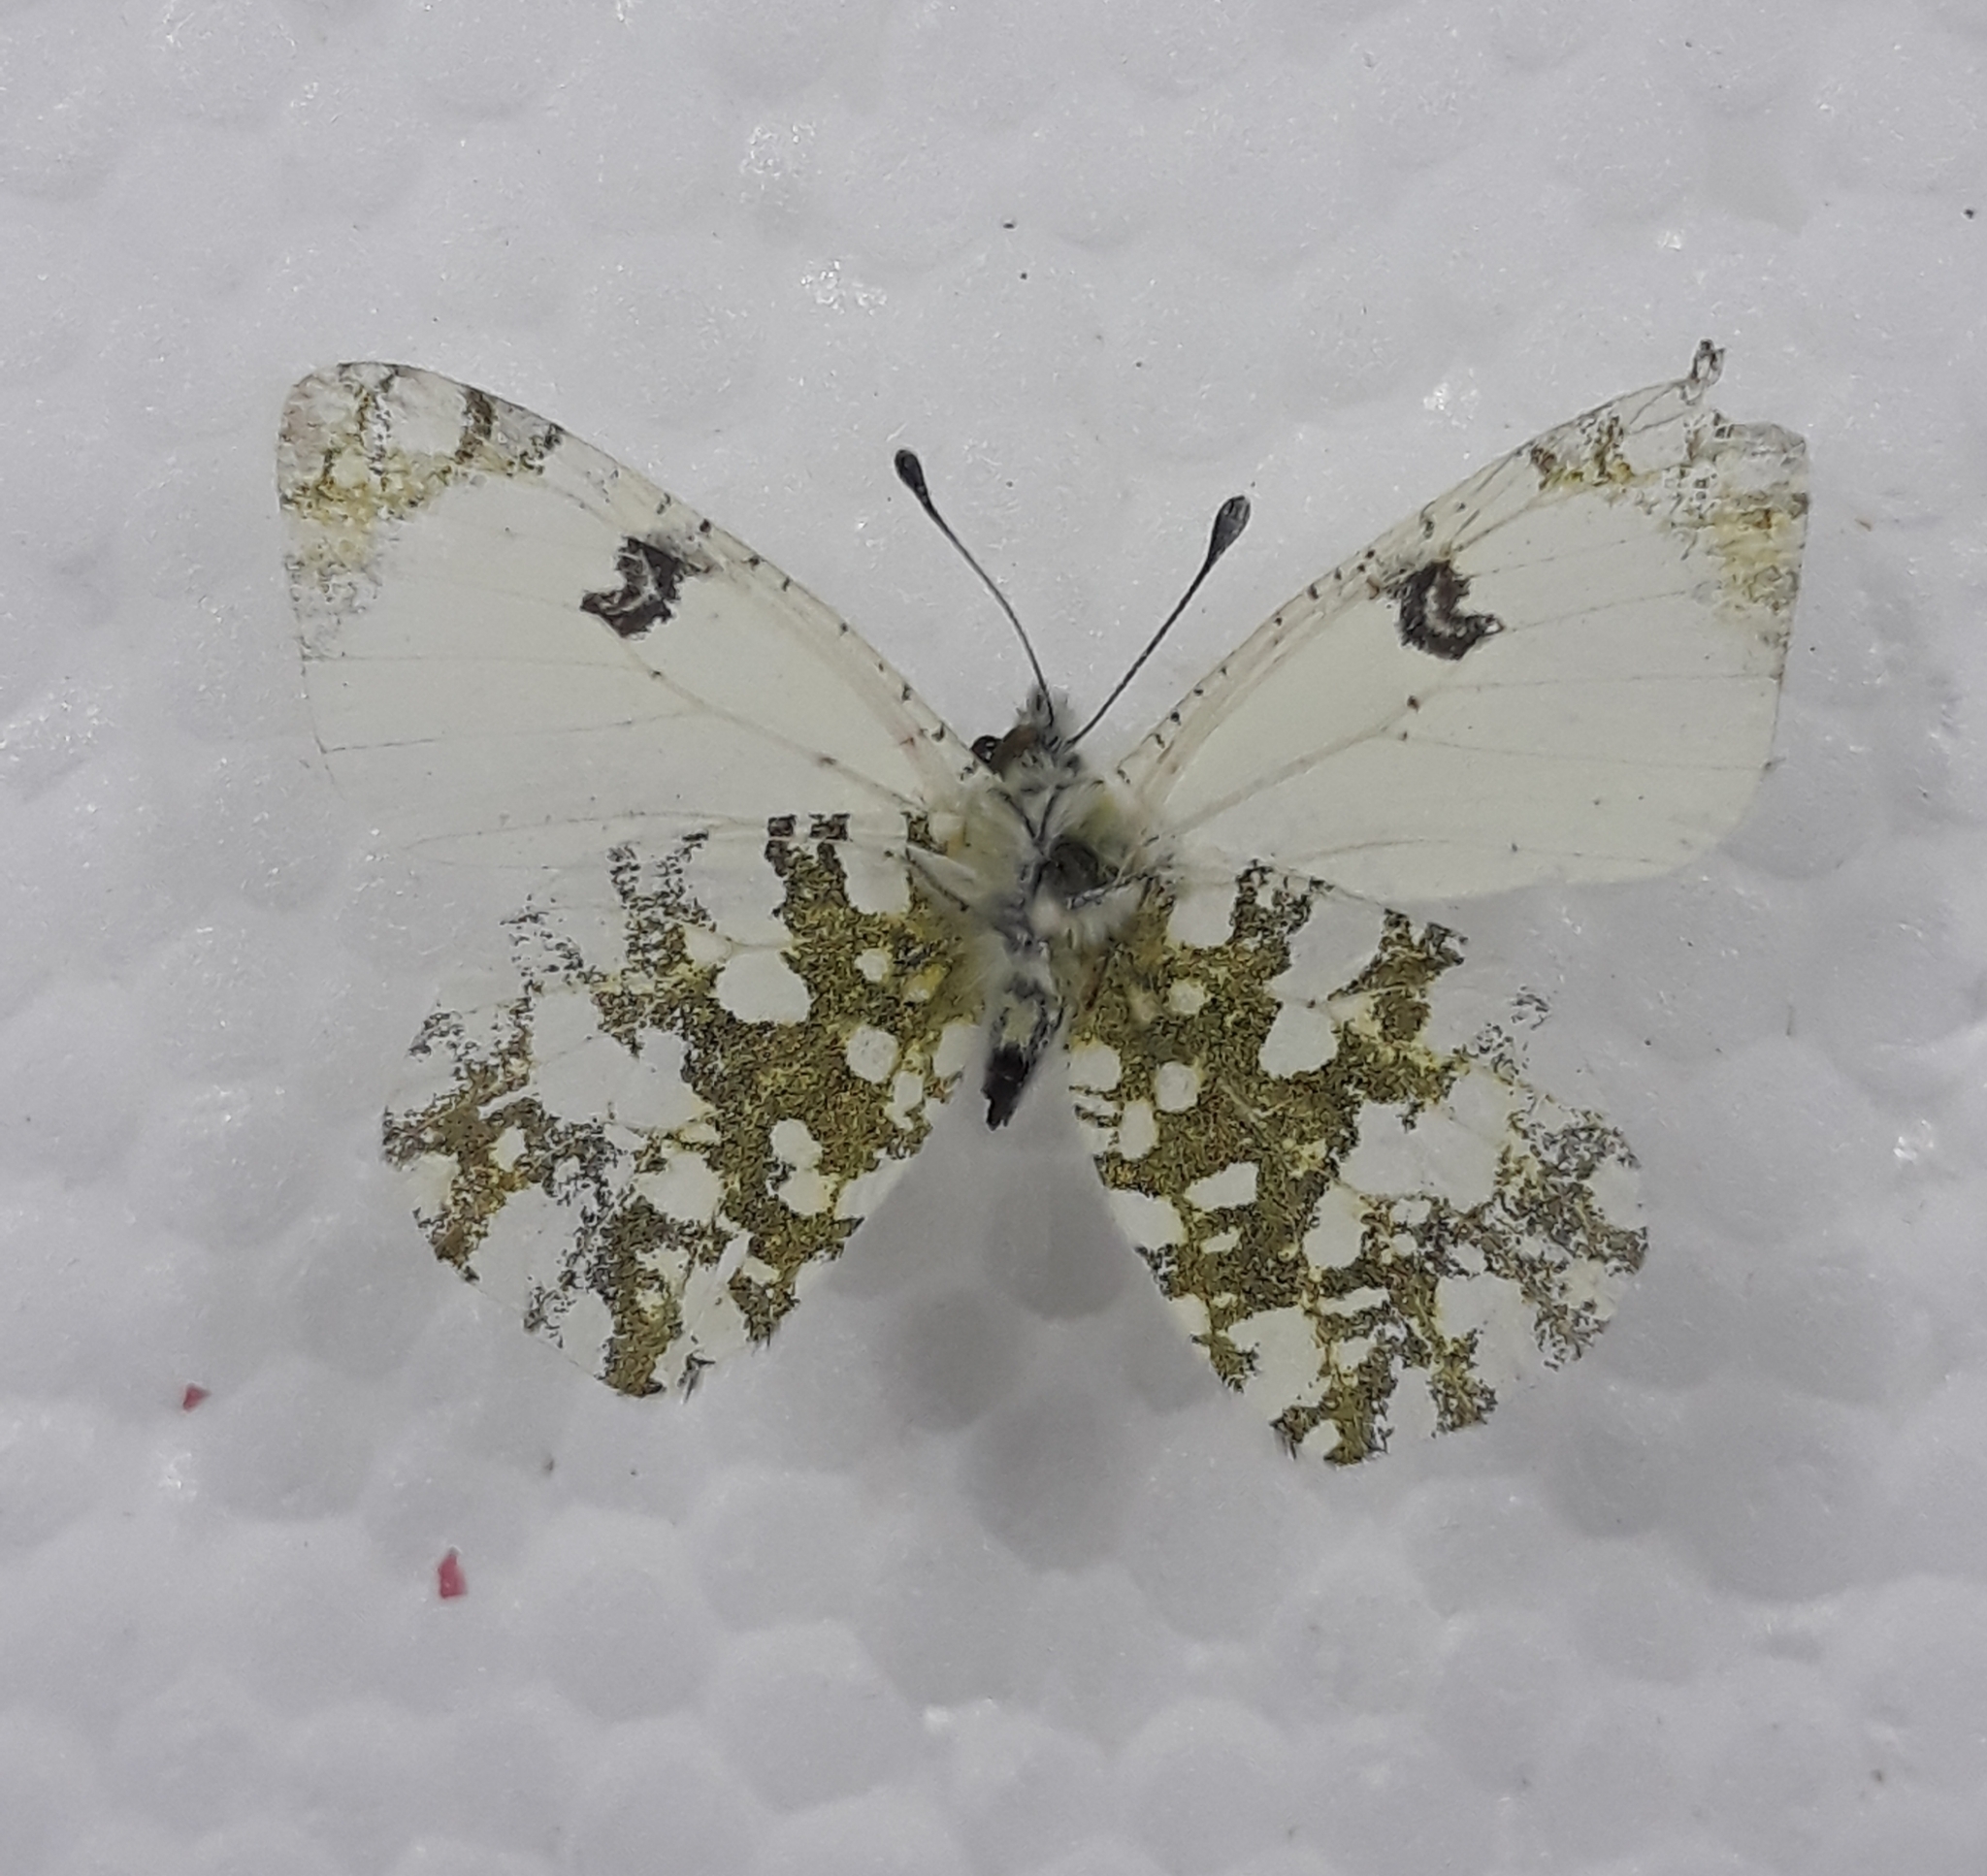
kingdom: Animalia
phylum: Arthropoda
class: Insecta
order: Lepidoptera
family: Pieridae
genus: Euchloe
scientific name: Euchloe crameri
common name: Western dappled white
